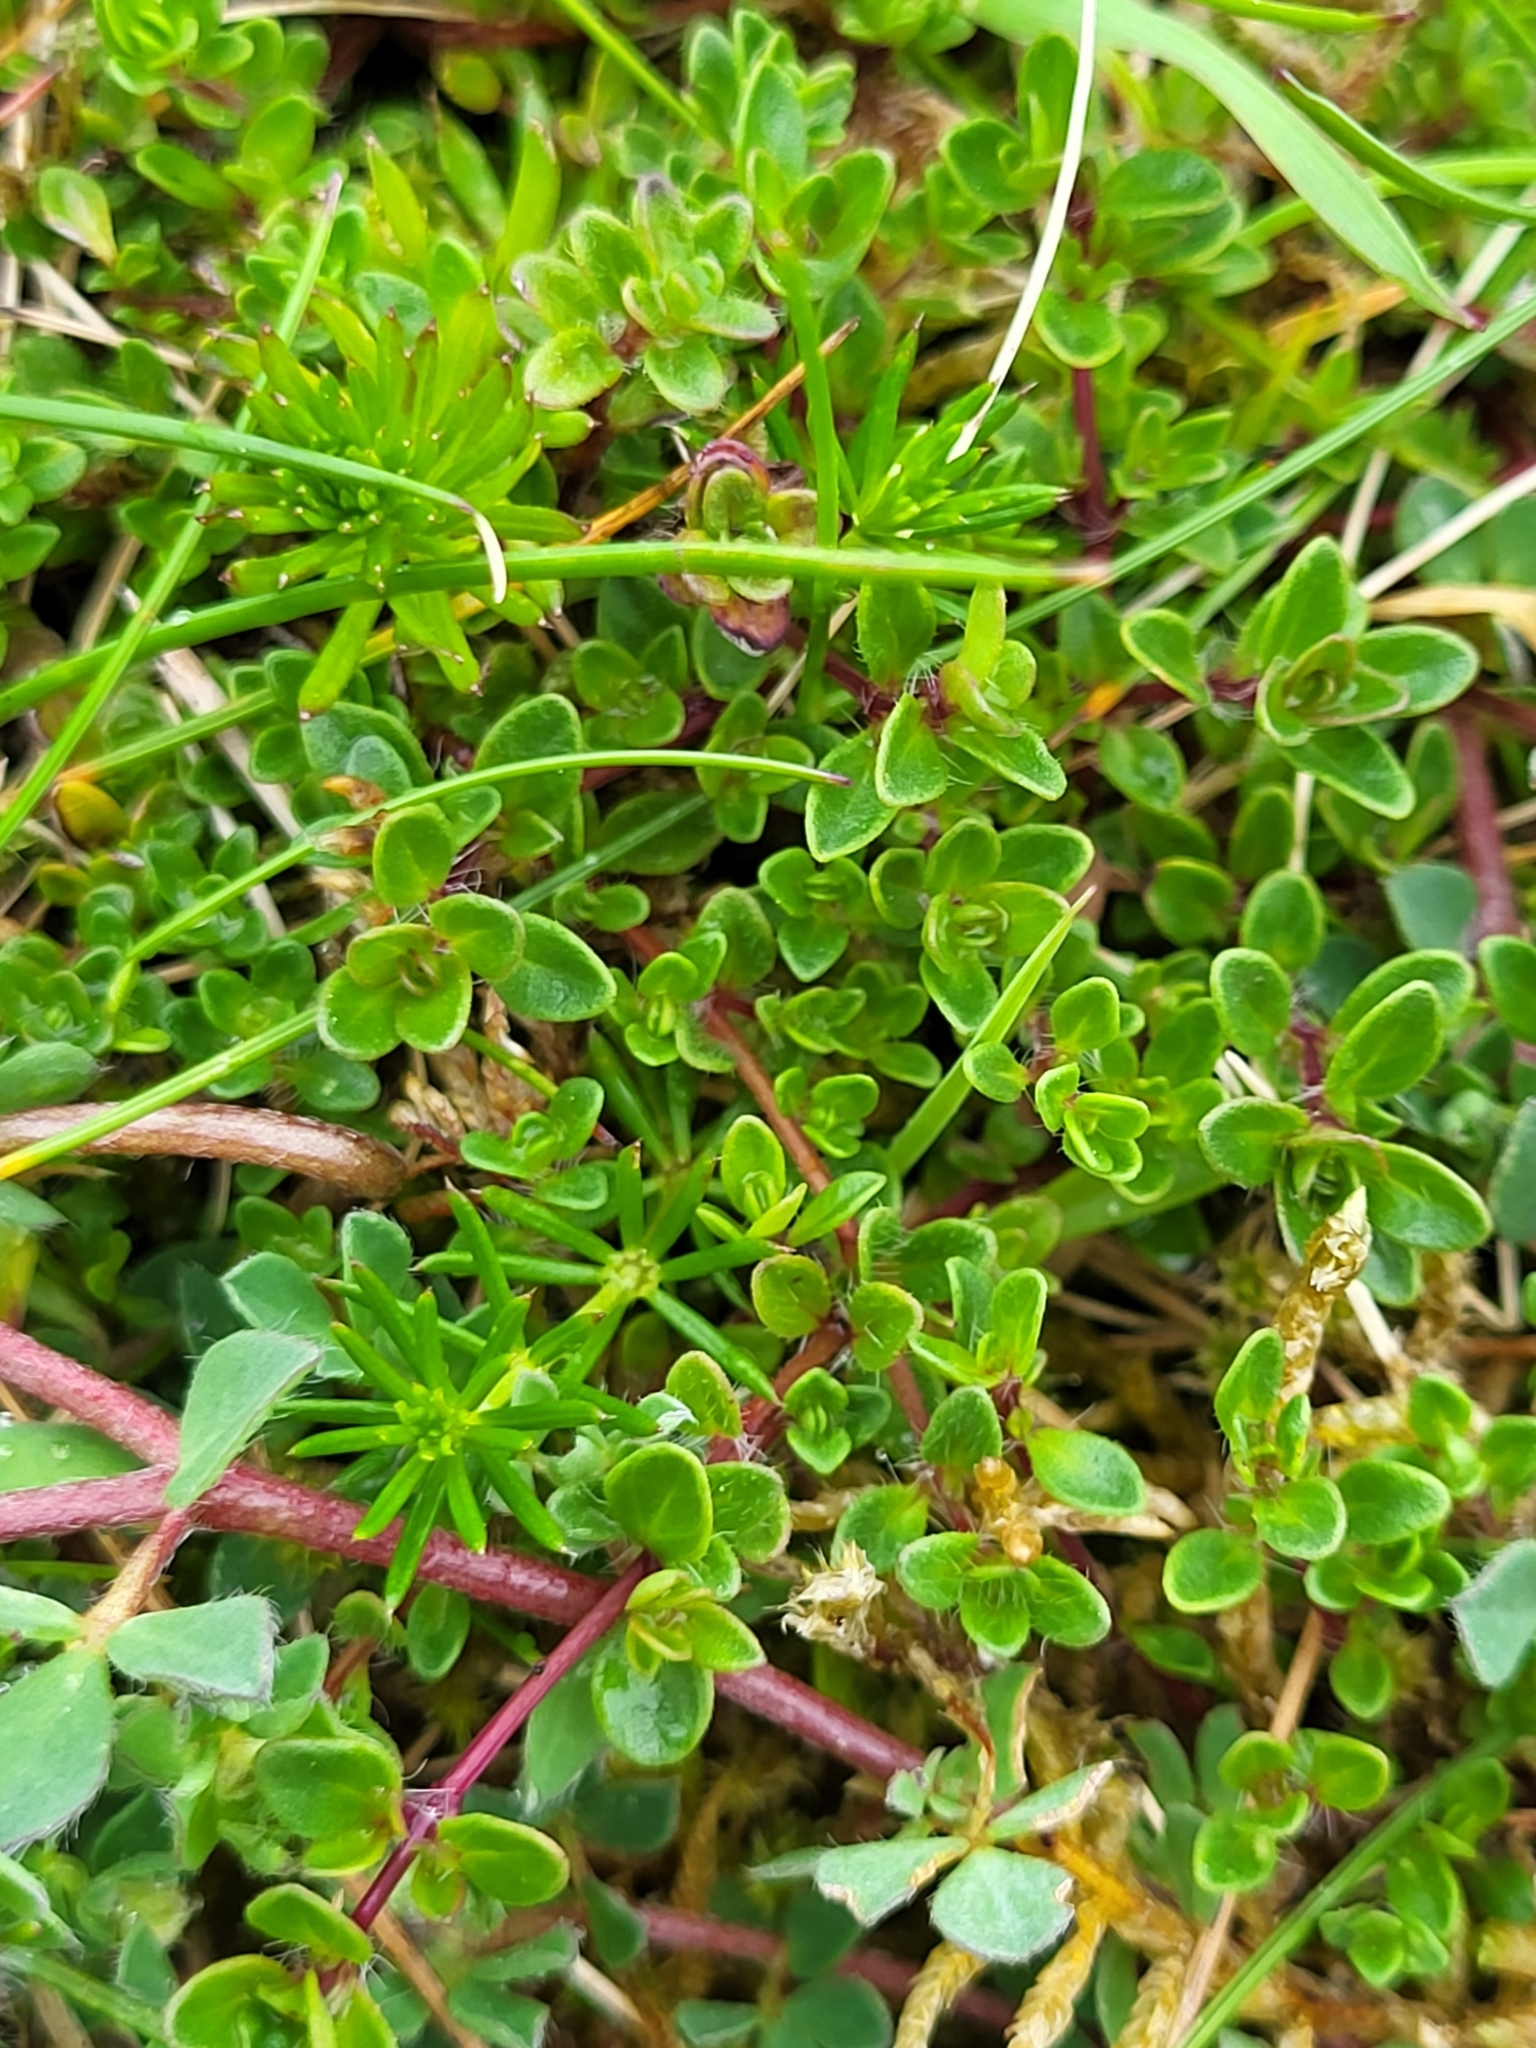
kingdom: Plantae
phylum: Tracheophyta
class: Magnoliopsida
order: Fabales
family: Fabaceae
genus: Lotus
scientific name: Lotus corniculatus
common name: Common bird's-foot-trefoil
